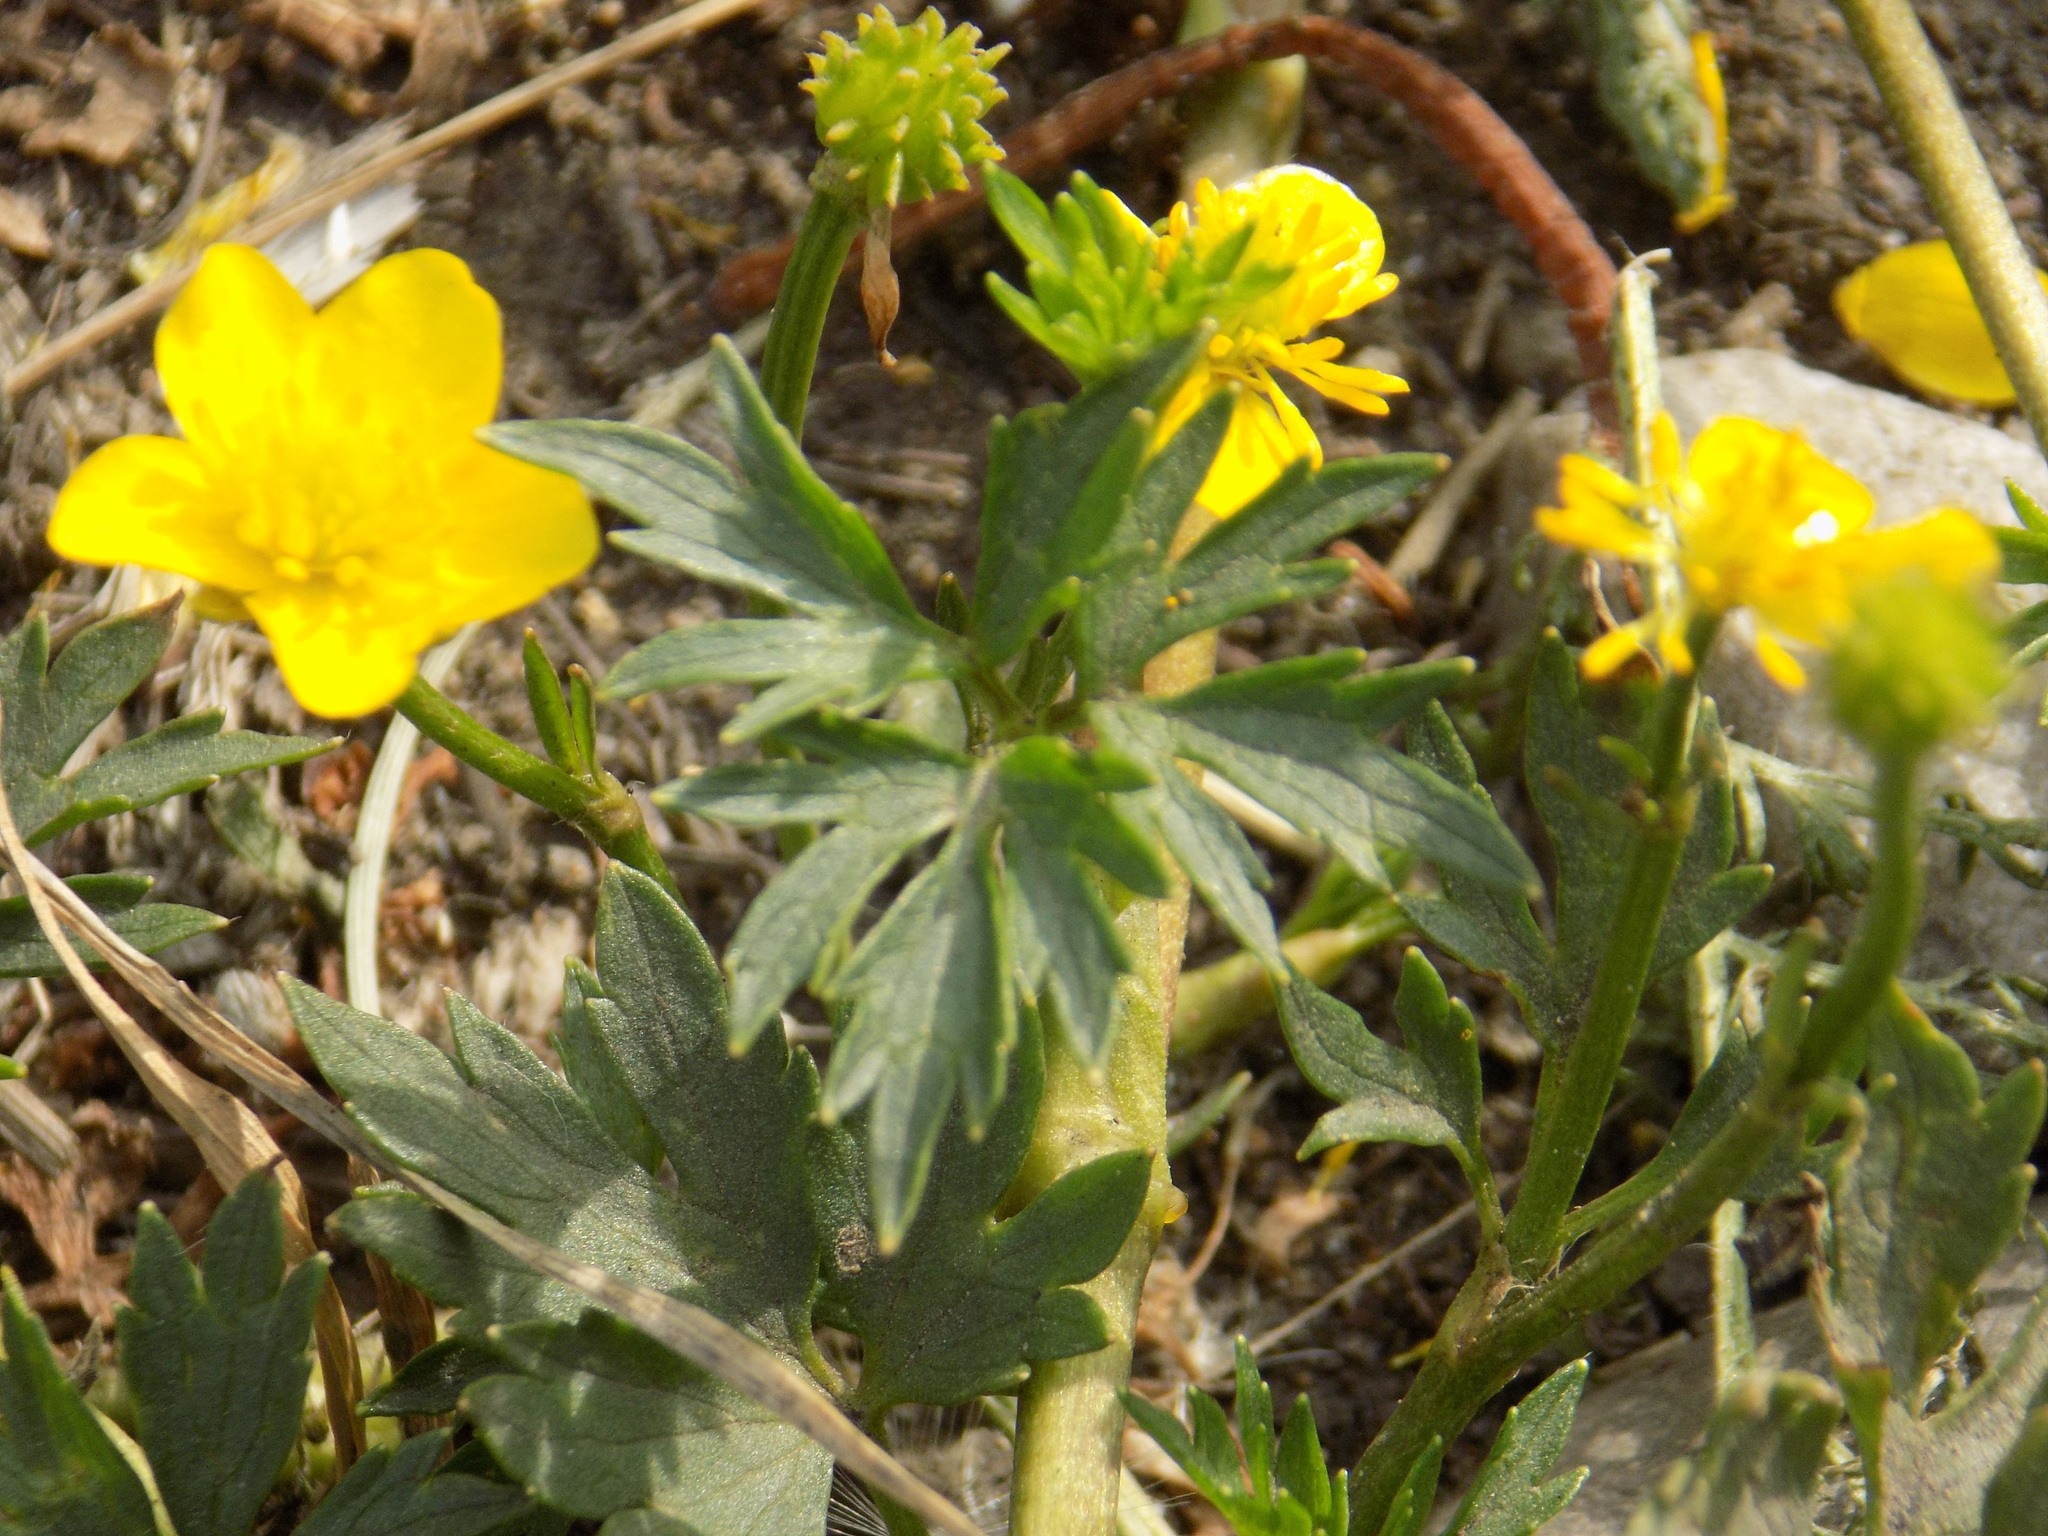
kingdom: Plantae
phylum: Tracheophyta
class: Magnoliopsida
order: Ranunculales
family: Ranunculaceae
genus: Ranunculus
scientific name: Ranunculus repens
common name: Creeping buttercup
